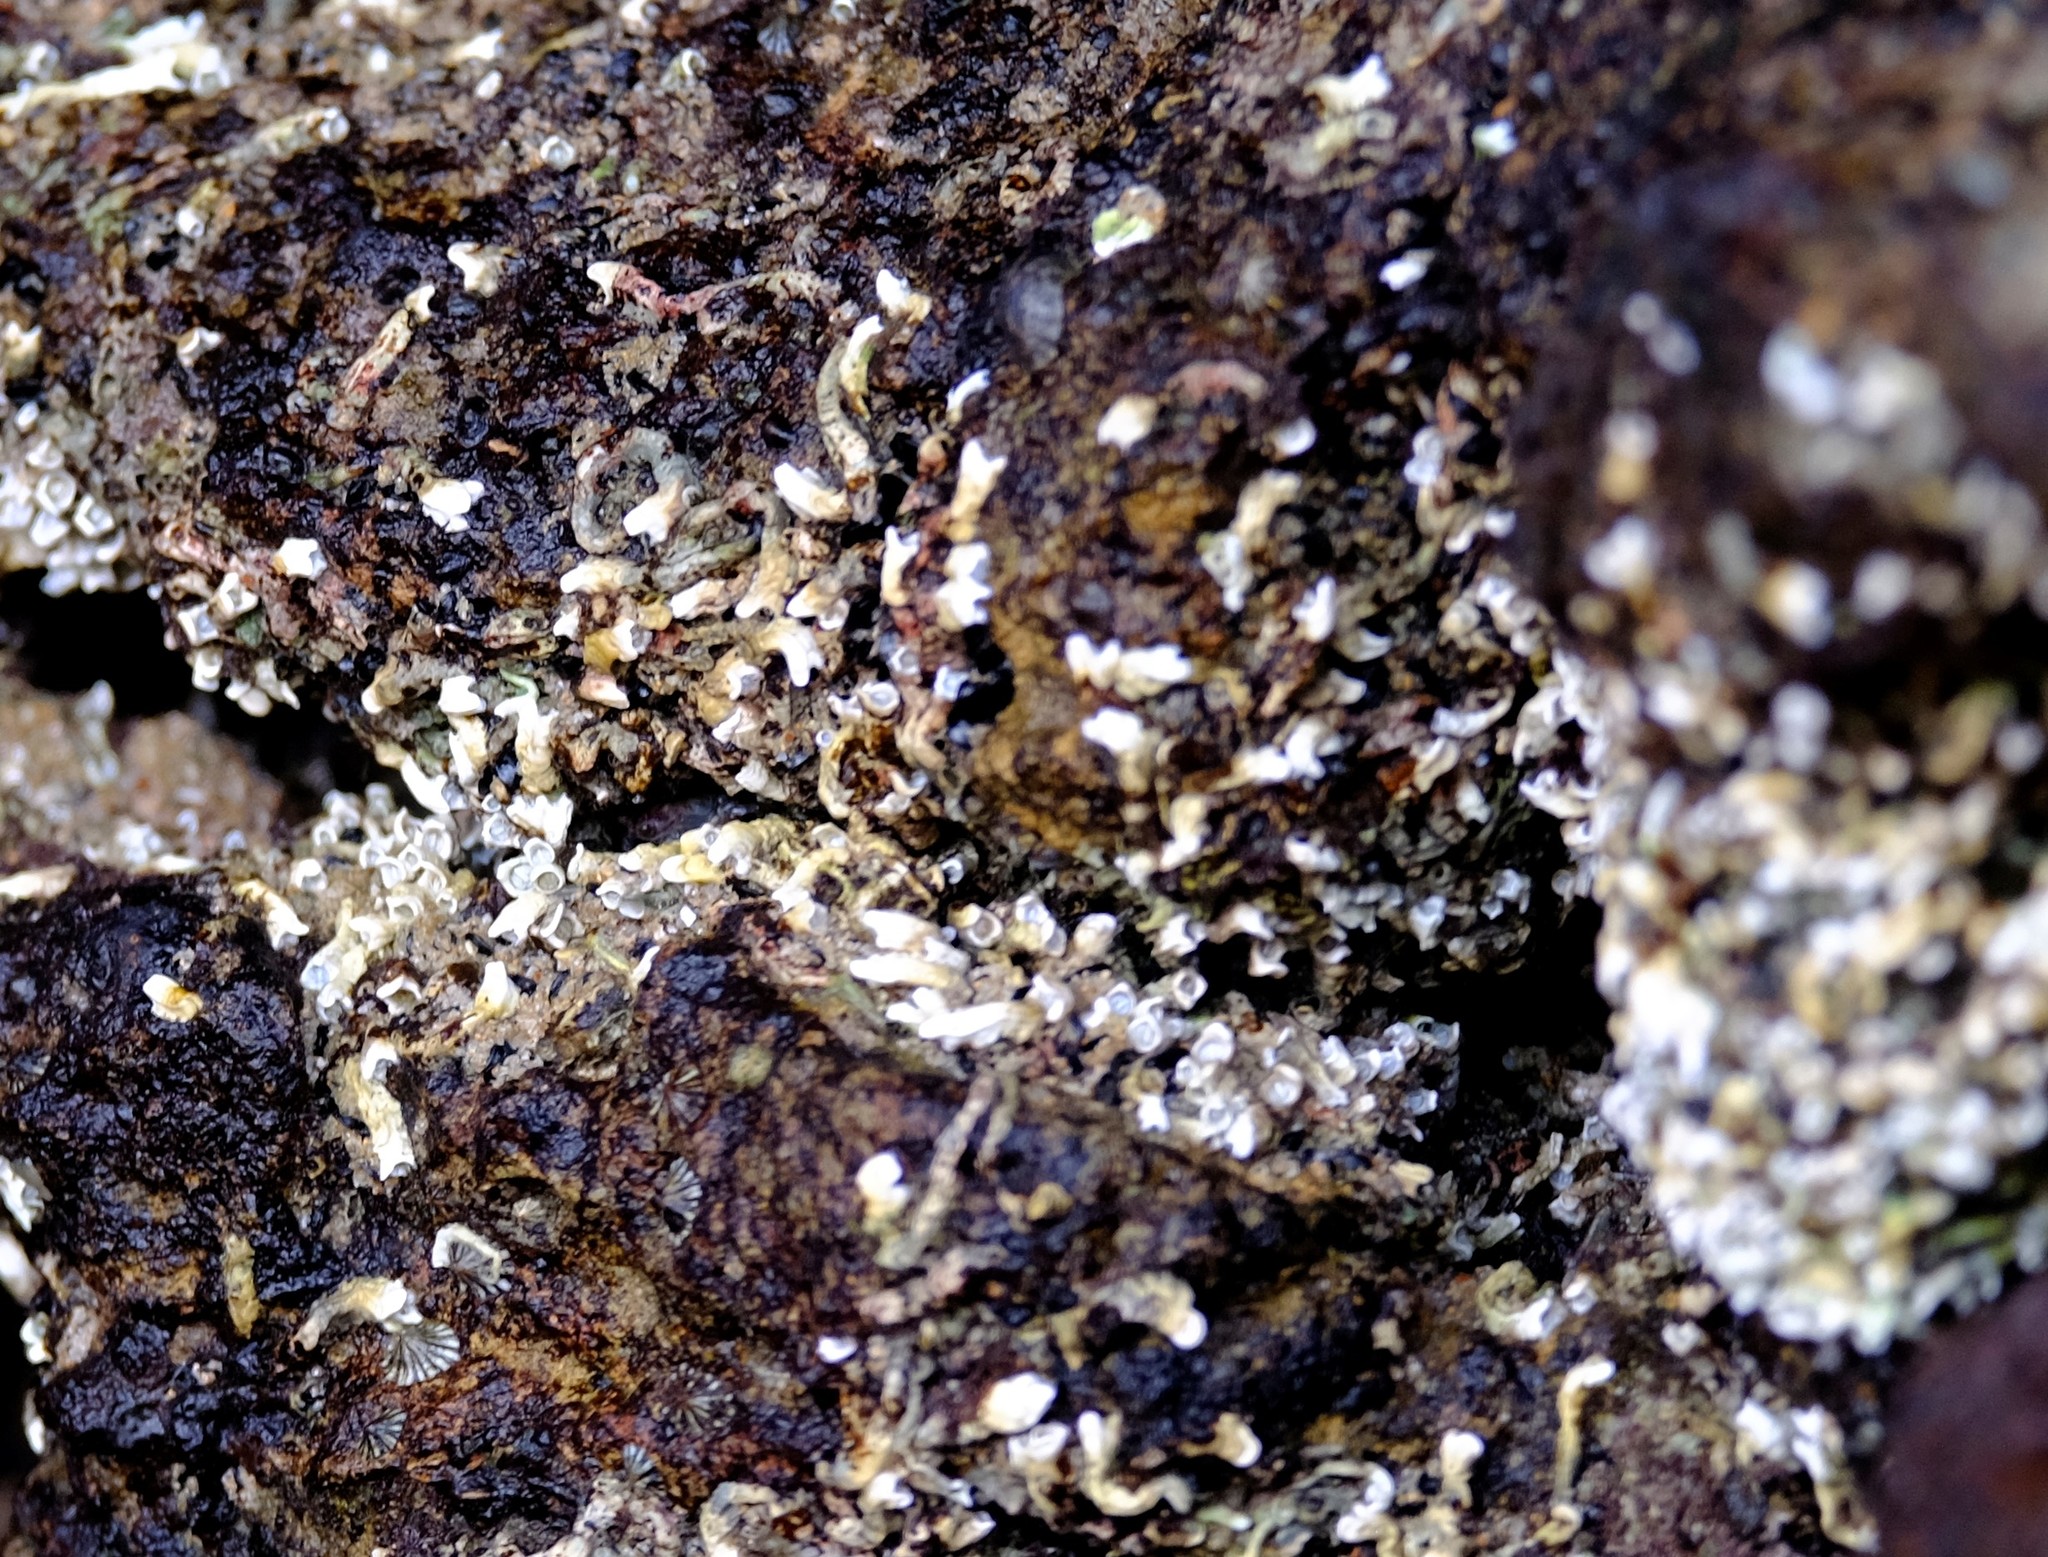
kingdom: Animalia
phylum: Annelida
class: Polychaeta
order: Sabellida
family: Serpulidae
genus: Galeolaria
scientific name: Galeolaria caespitosa
